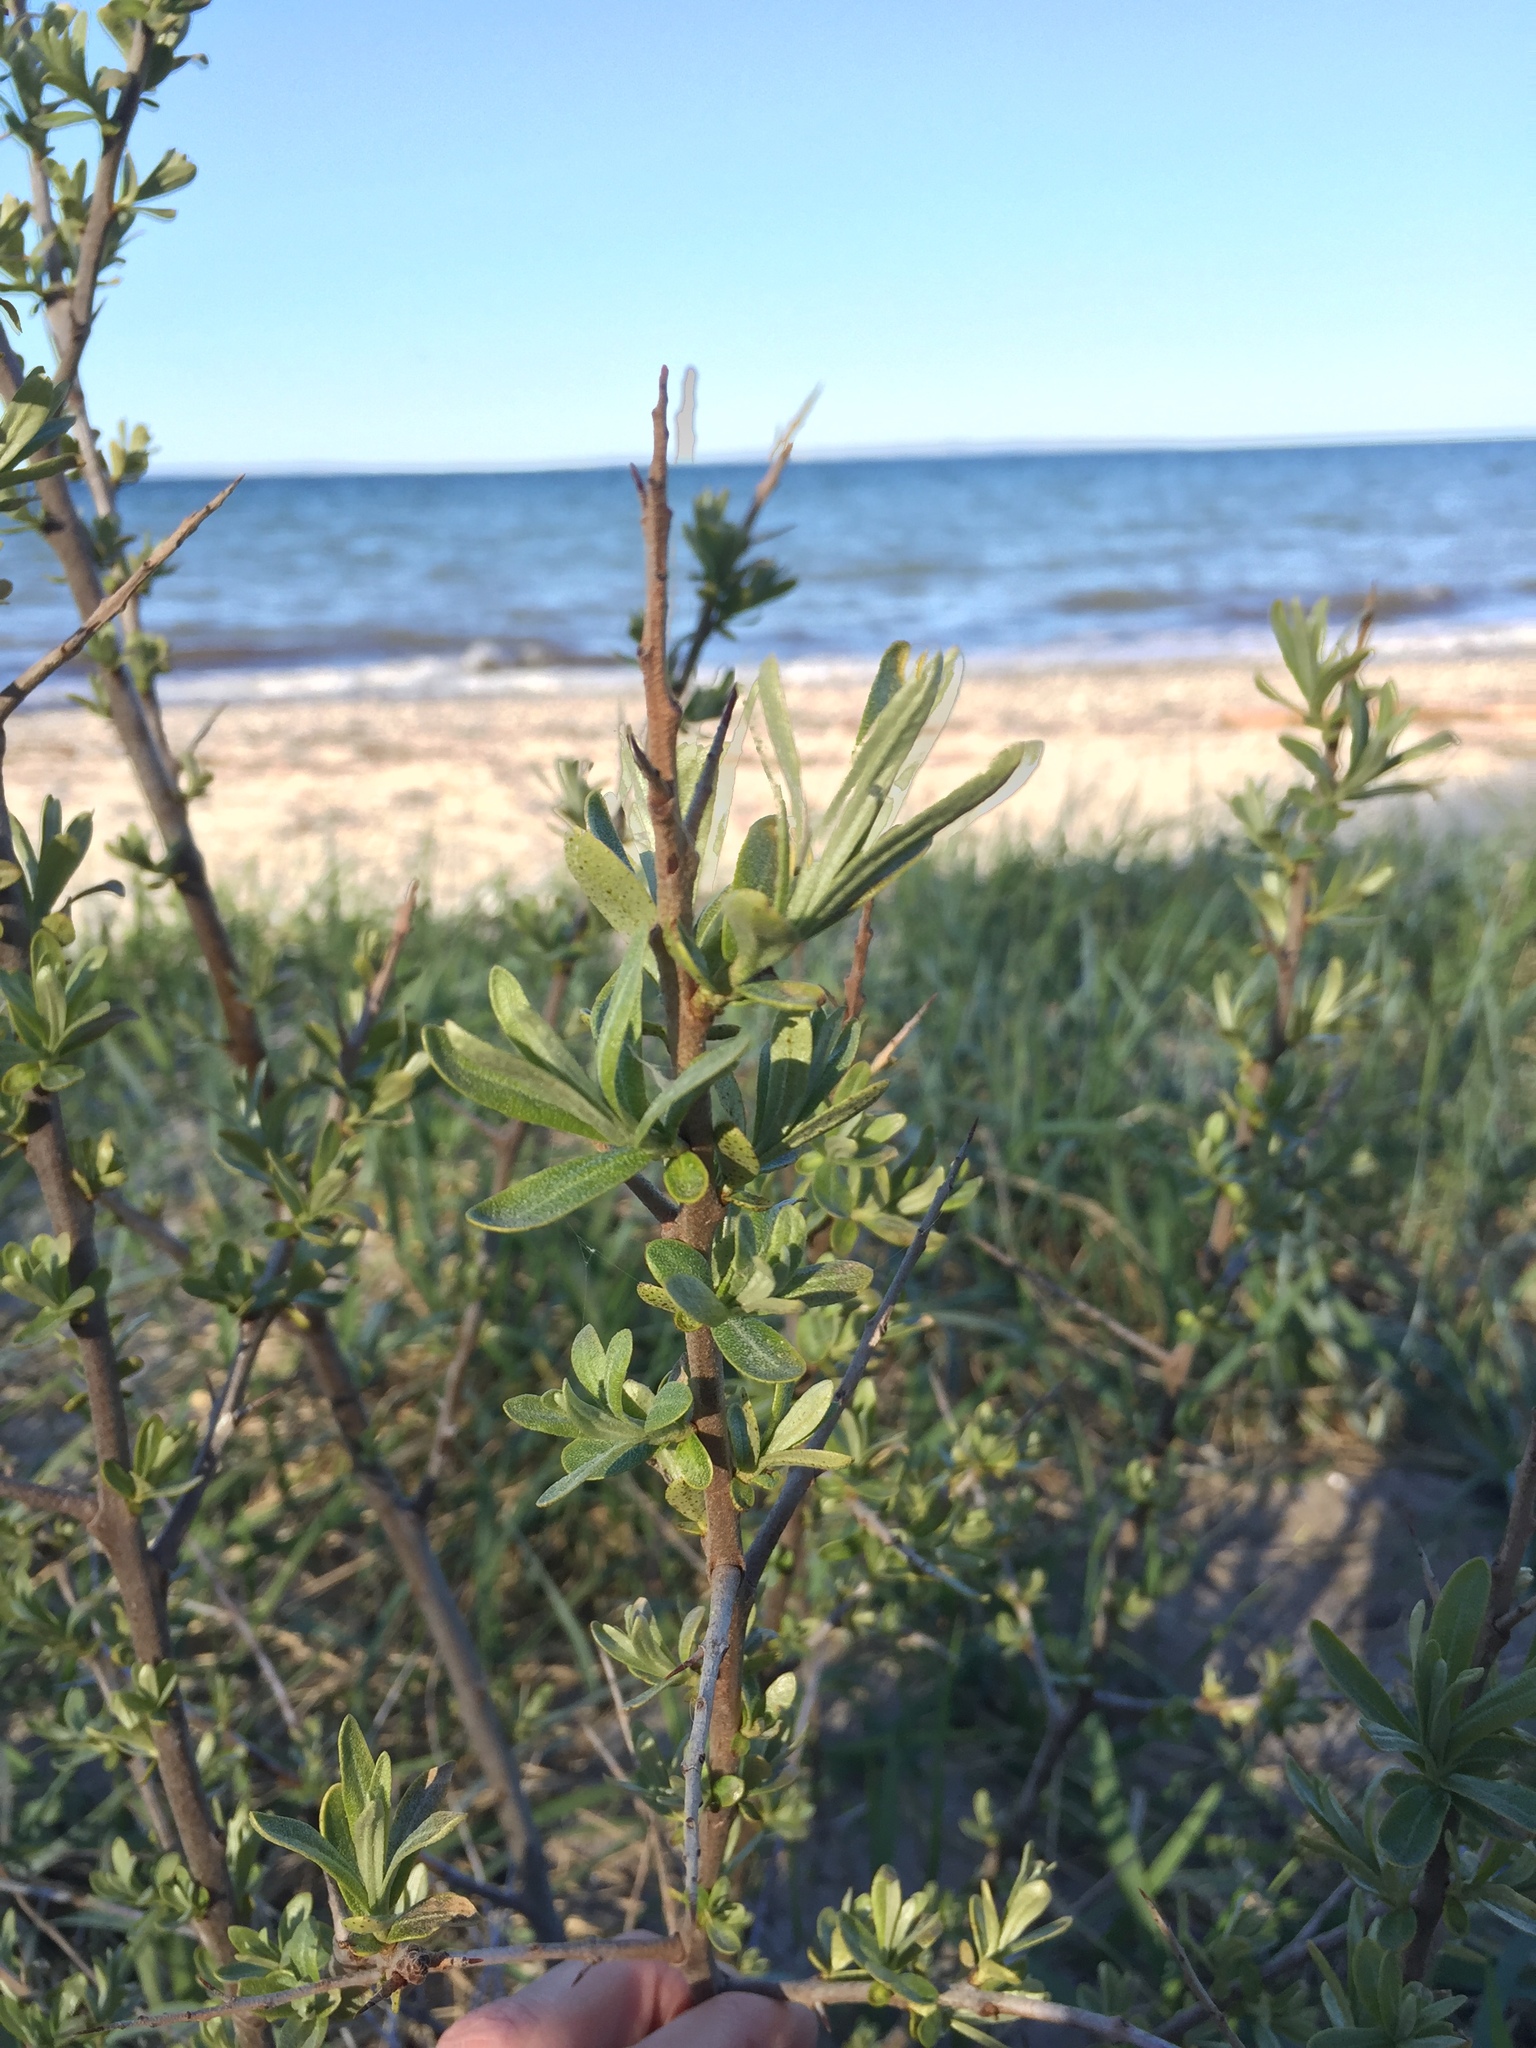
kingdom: Plantae
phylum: Tracheophyta
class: Magnoliopsida
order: Rosales
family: Elaeagnaceae
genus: Hippophae
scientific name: Hippophae rhamnoides
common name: Sea-buckthorn
